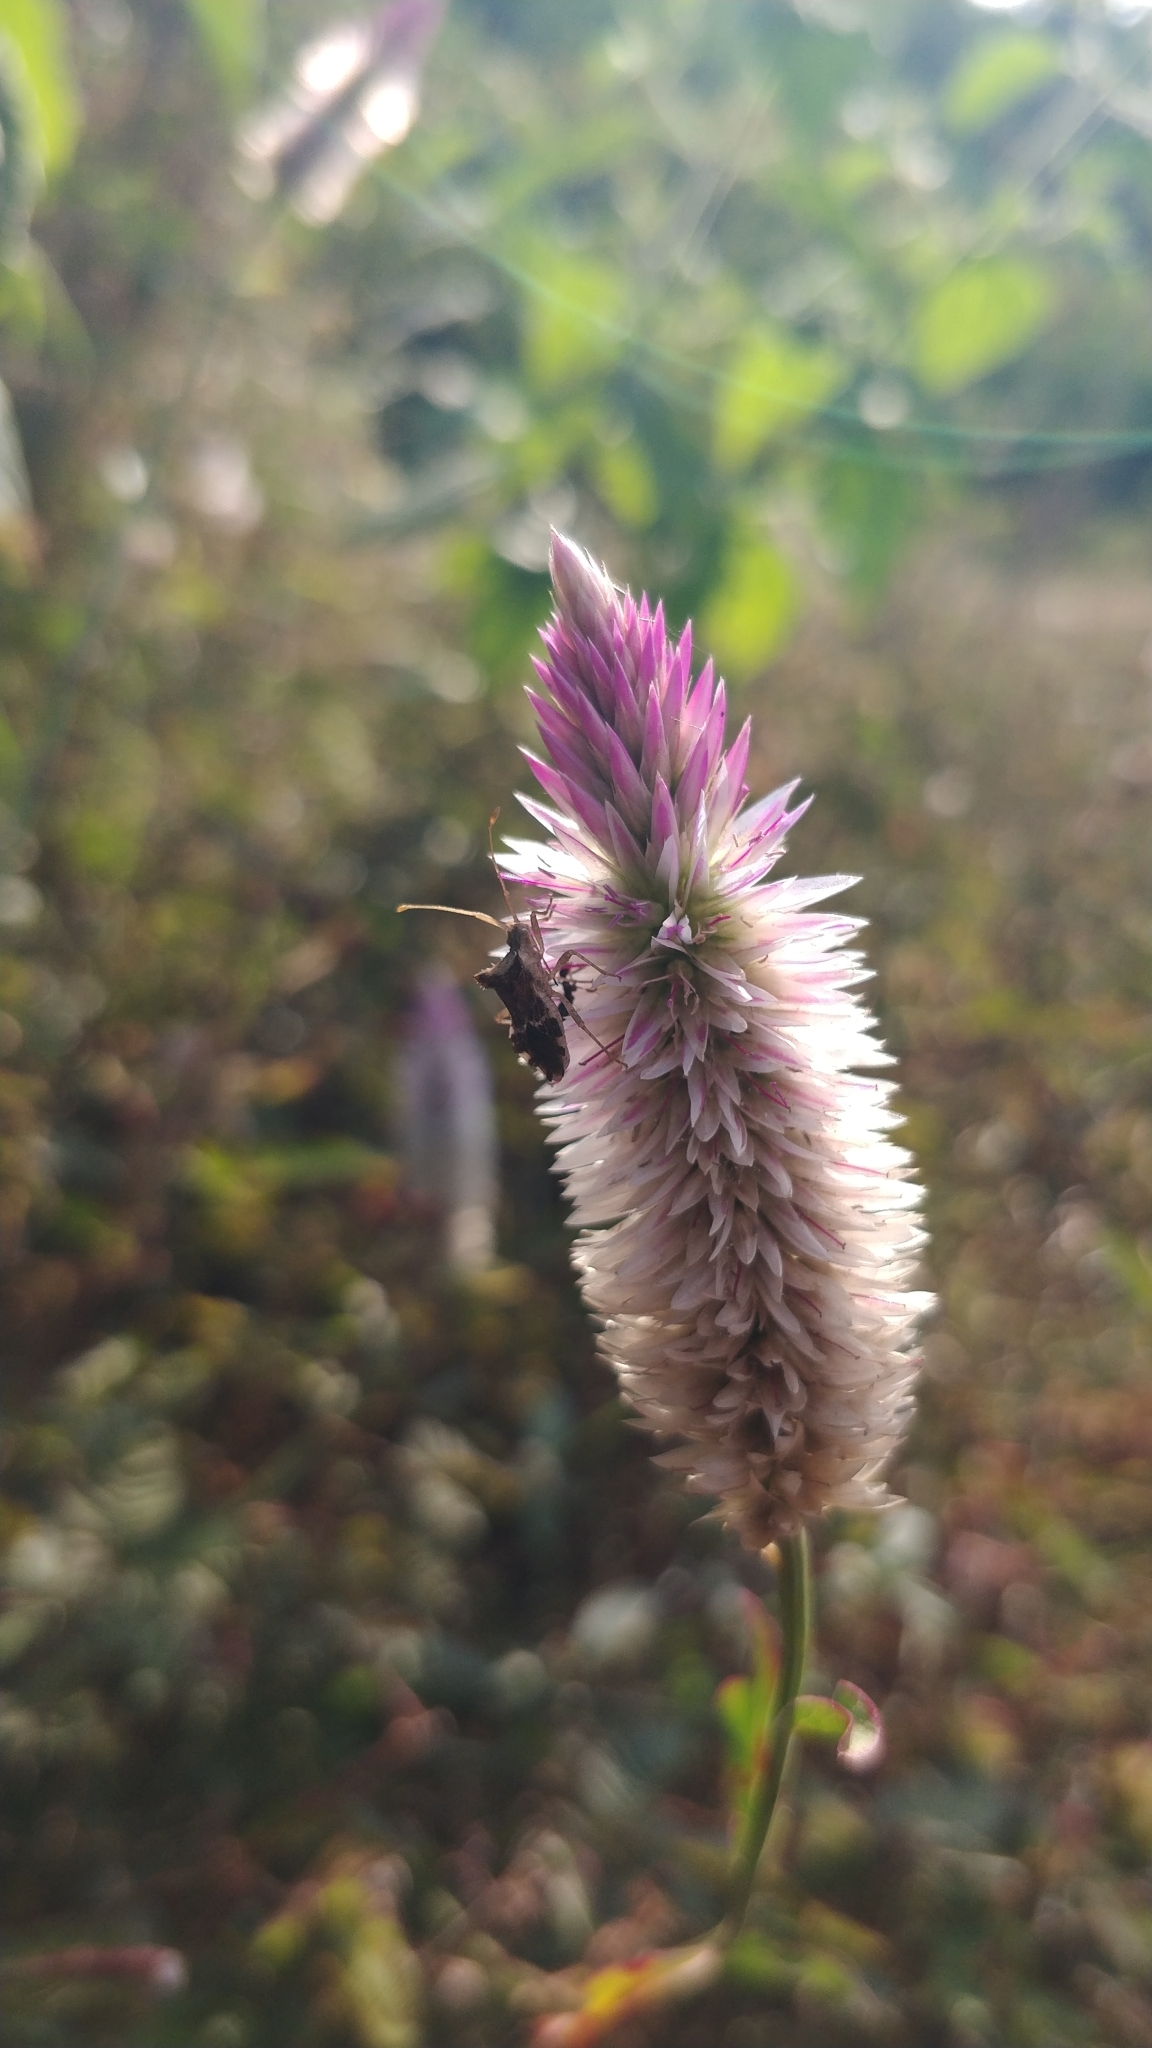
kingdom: Plantae
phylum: Tracheophyta
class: Magnoliopsida
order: Caryophyllales
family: Amaranthaceae
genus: Celosia
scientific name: Celosia argentea
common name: Feather cockscomb
